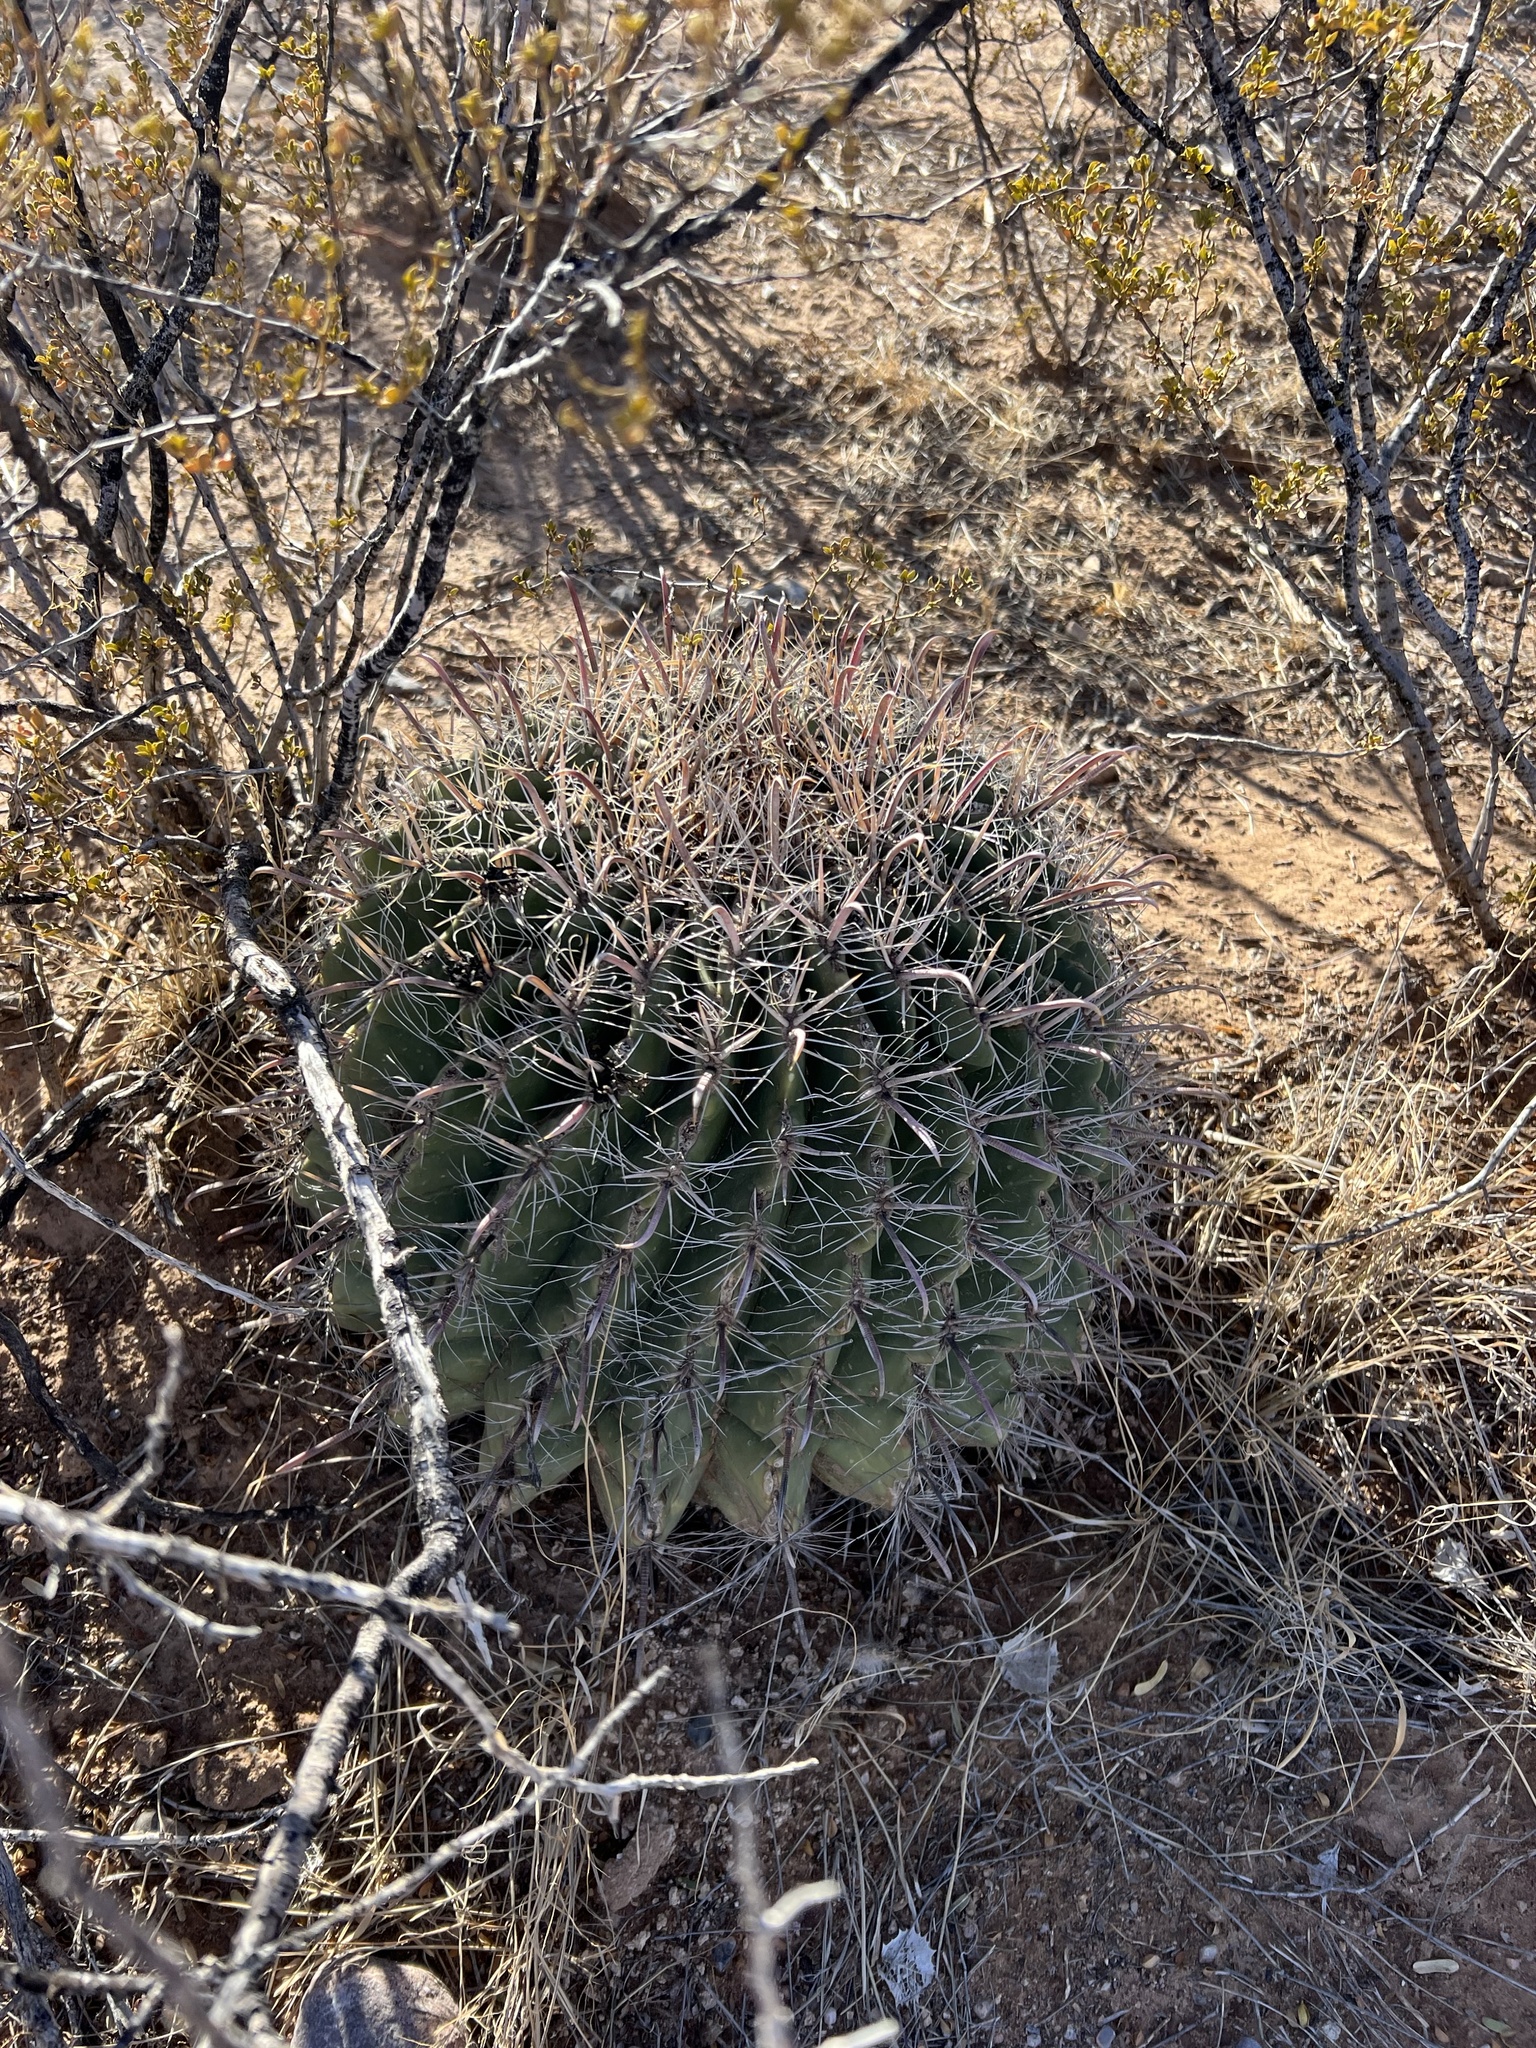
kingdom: Plantae
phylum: Tracheophyta
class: Magnoliopsida
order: Caryophyllales
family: Cactaceae
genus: Ferocactus
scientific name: Ferocactus wislizeni
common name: Candy barrel cactus
